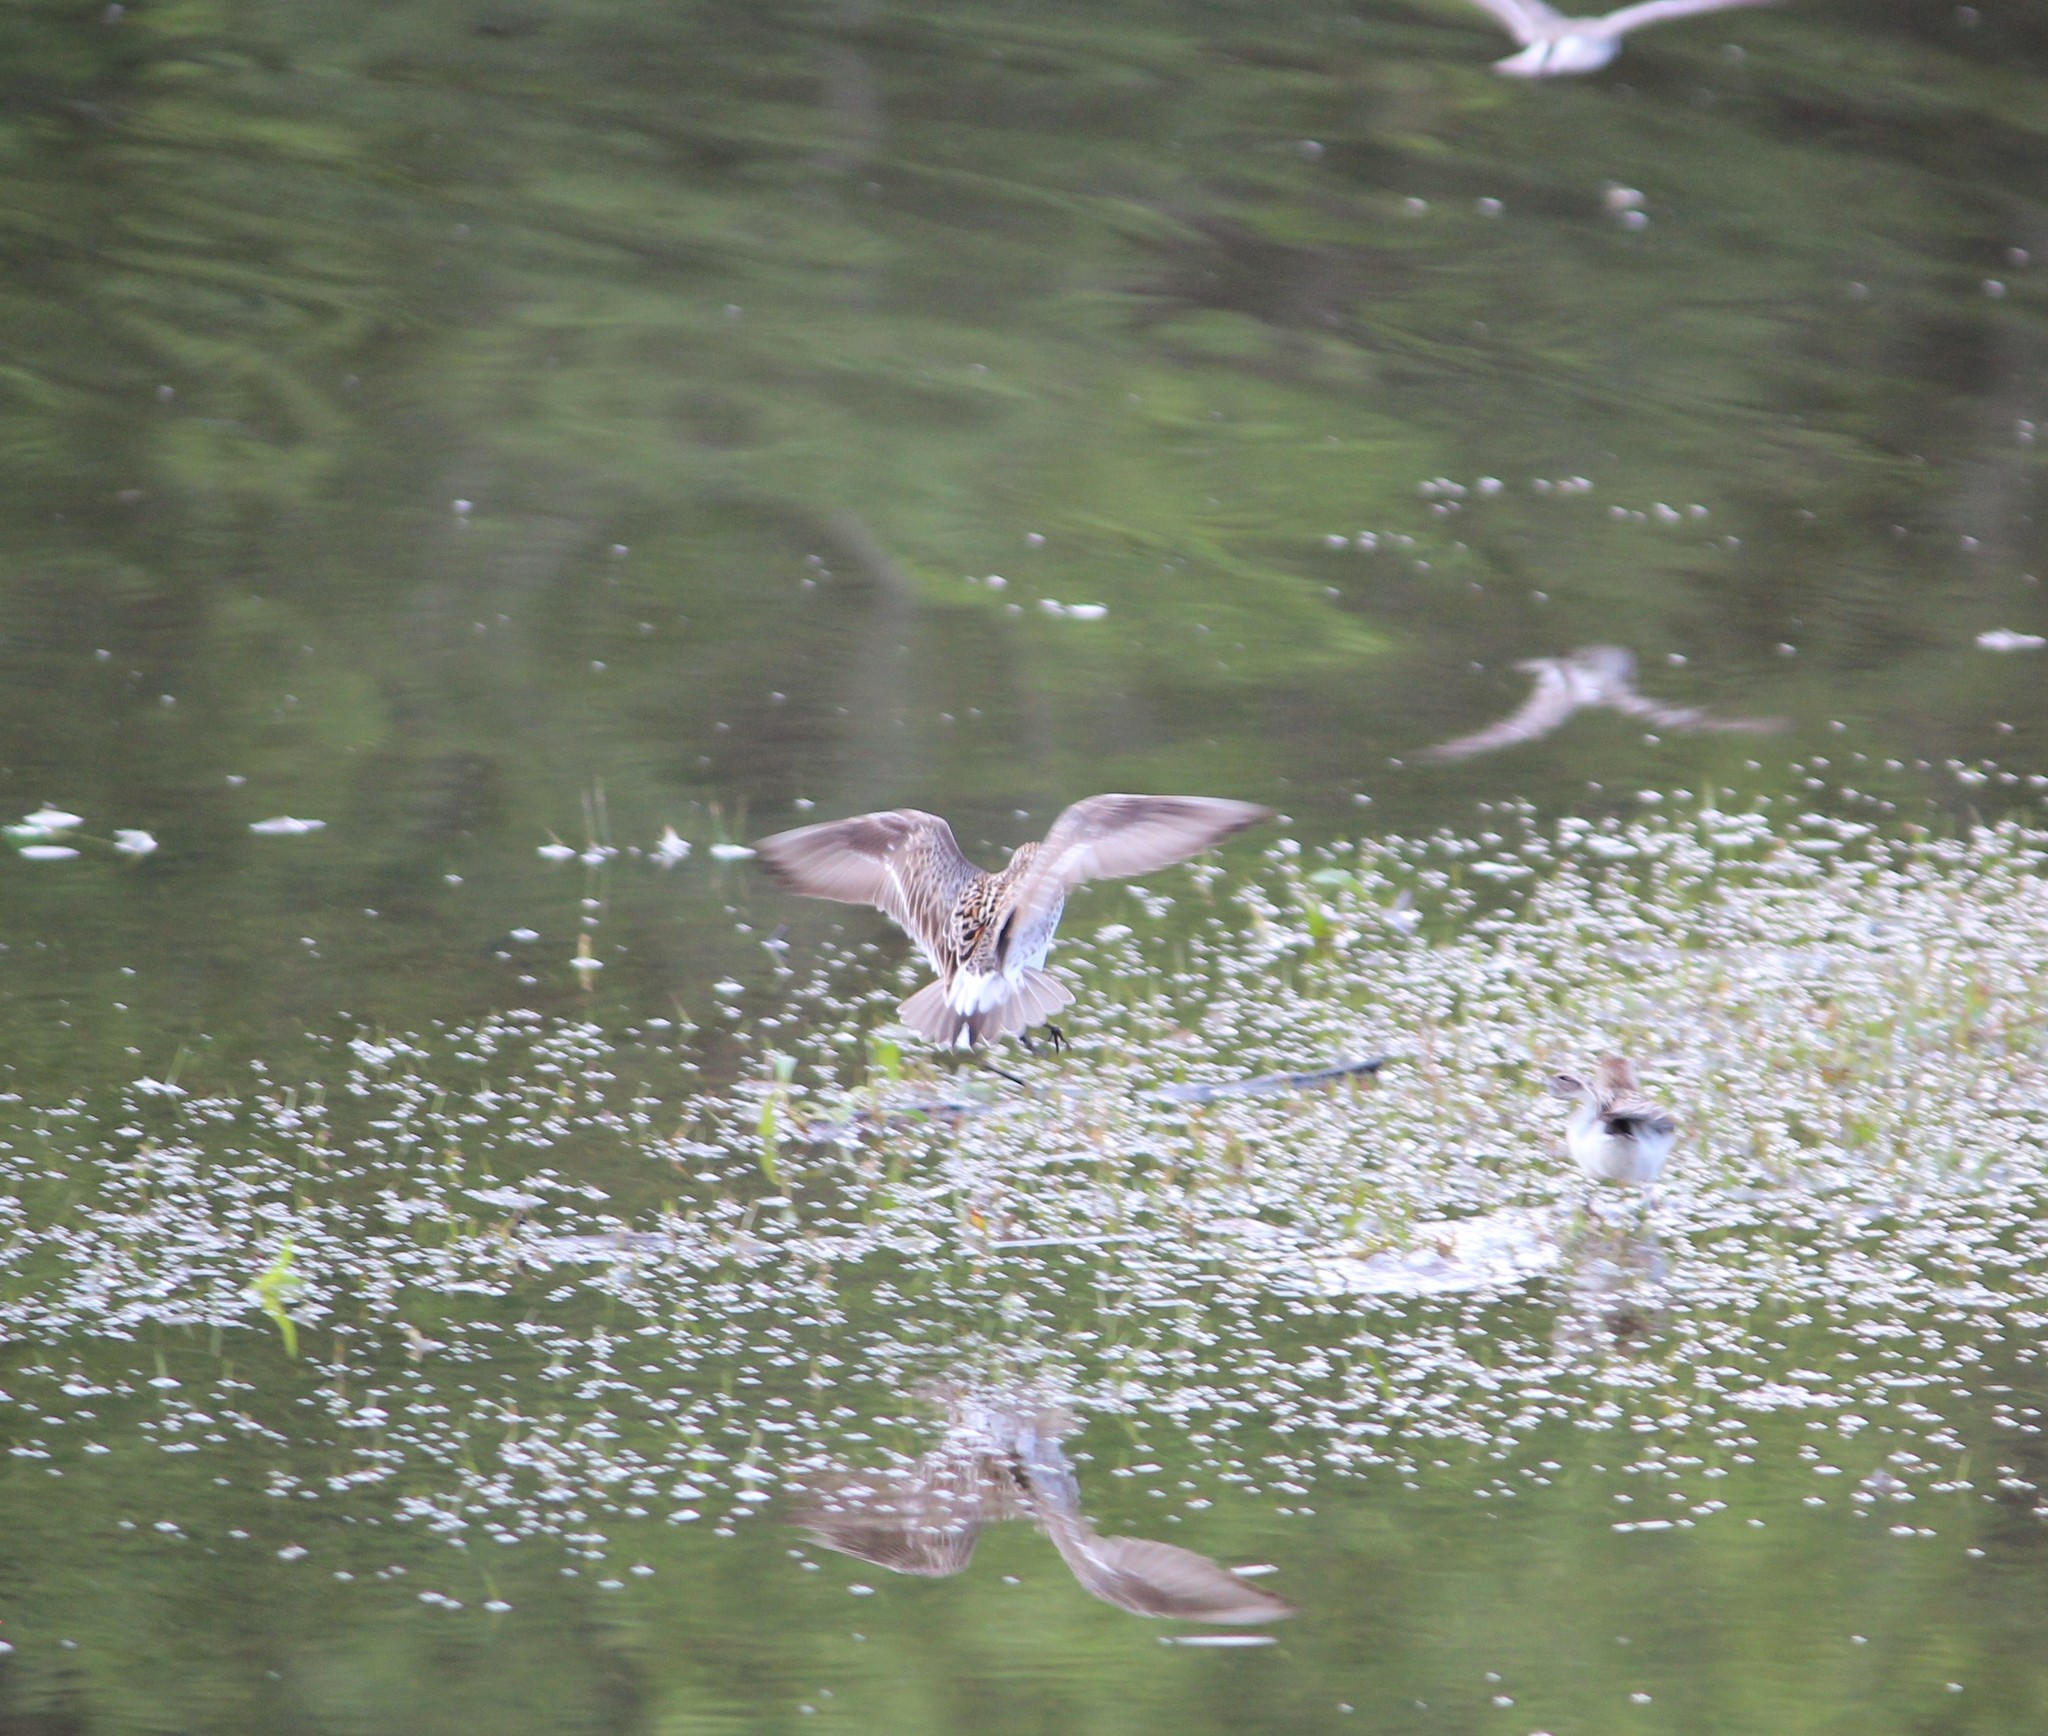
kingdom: Animalia
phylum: Chordata
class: Aves
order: Charadriiformes
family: Scolopacidae
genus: Calidris
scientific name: Calidris fuscicollis
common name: White-rumped sandpiper
